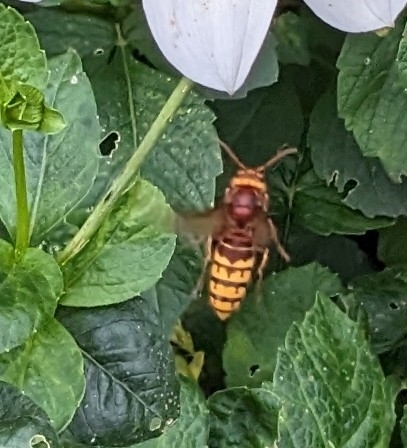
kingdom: Animalia
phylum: Arthropoda
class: Insecta
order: Hymenoptera
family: Vespidae
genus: Vespa
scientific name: Vespa crabro
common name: Hornet
